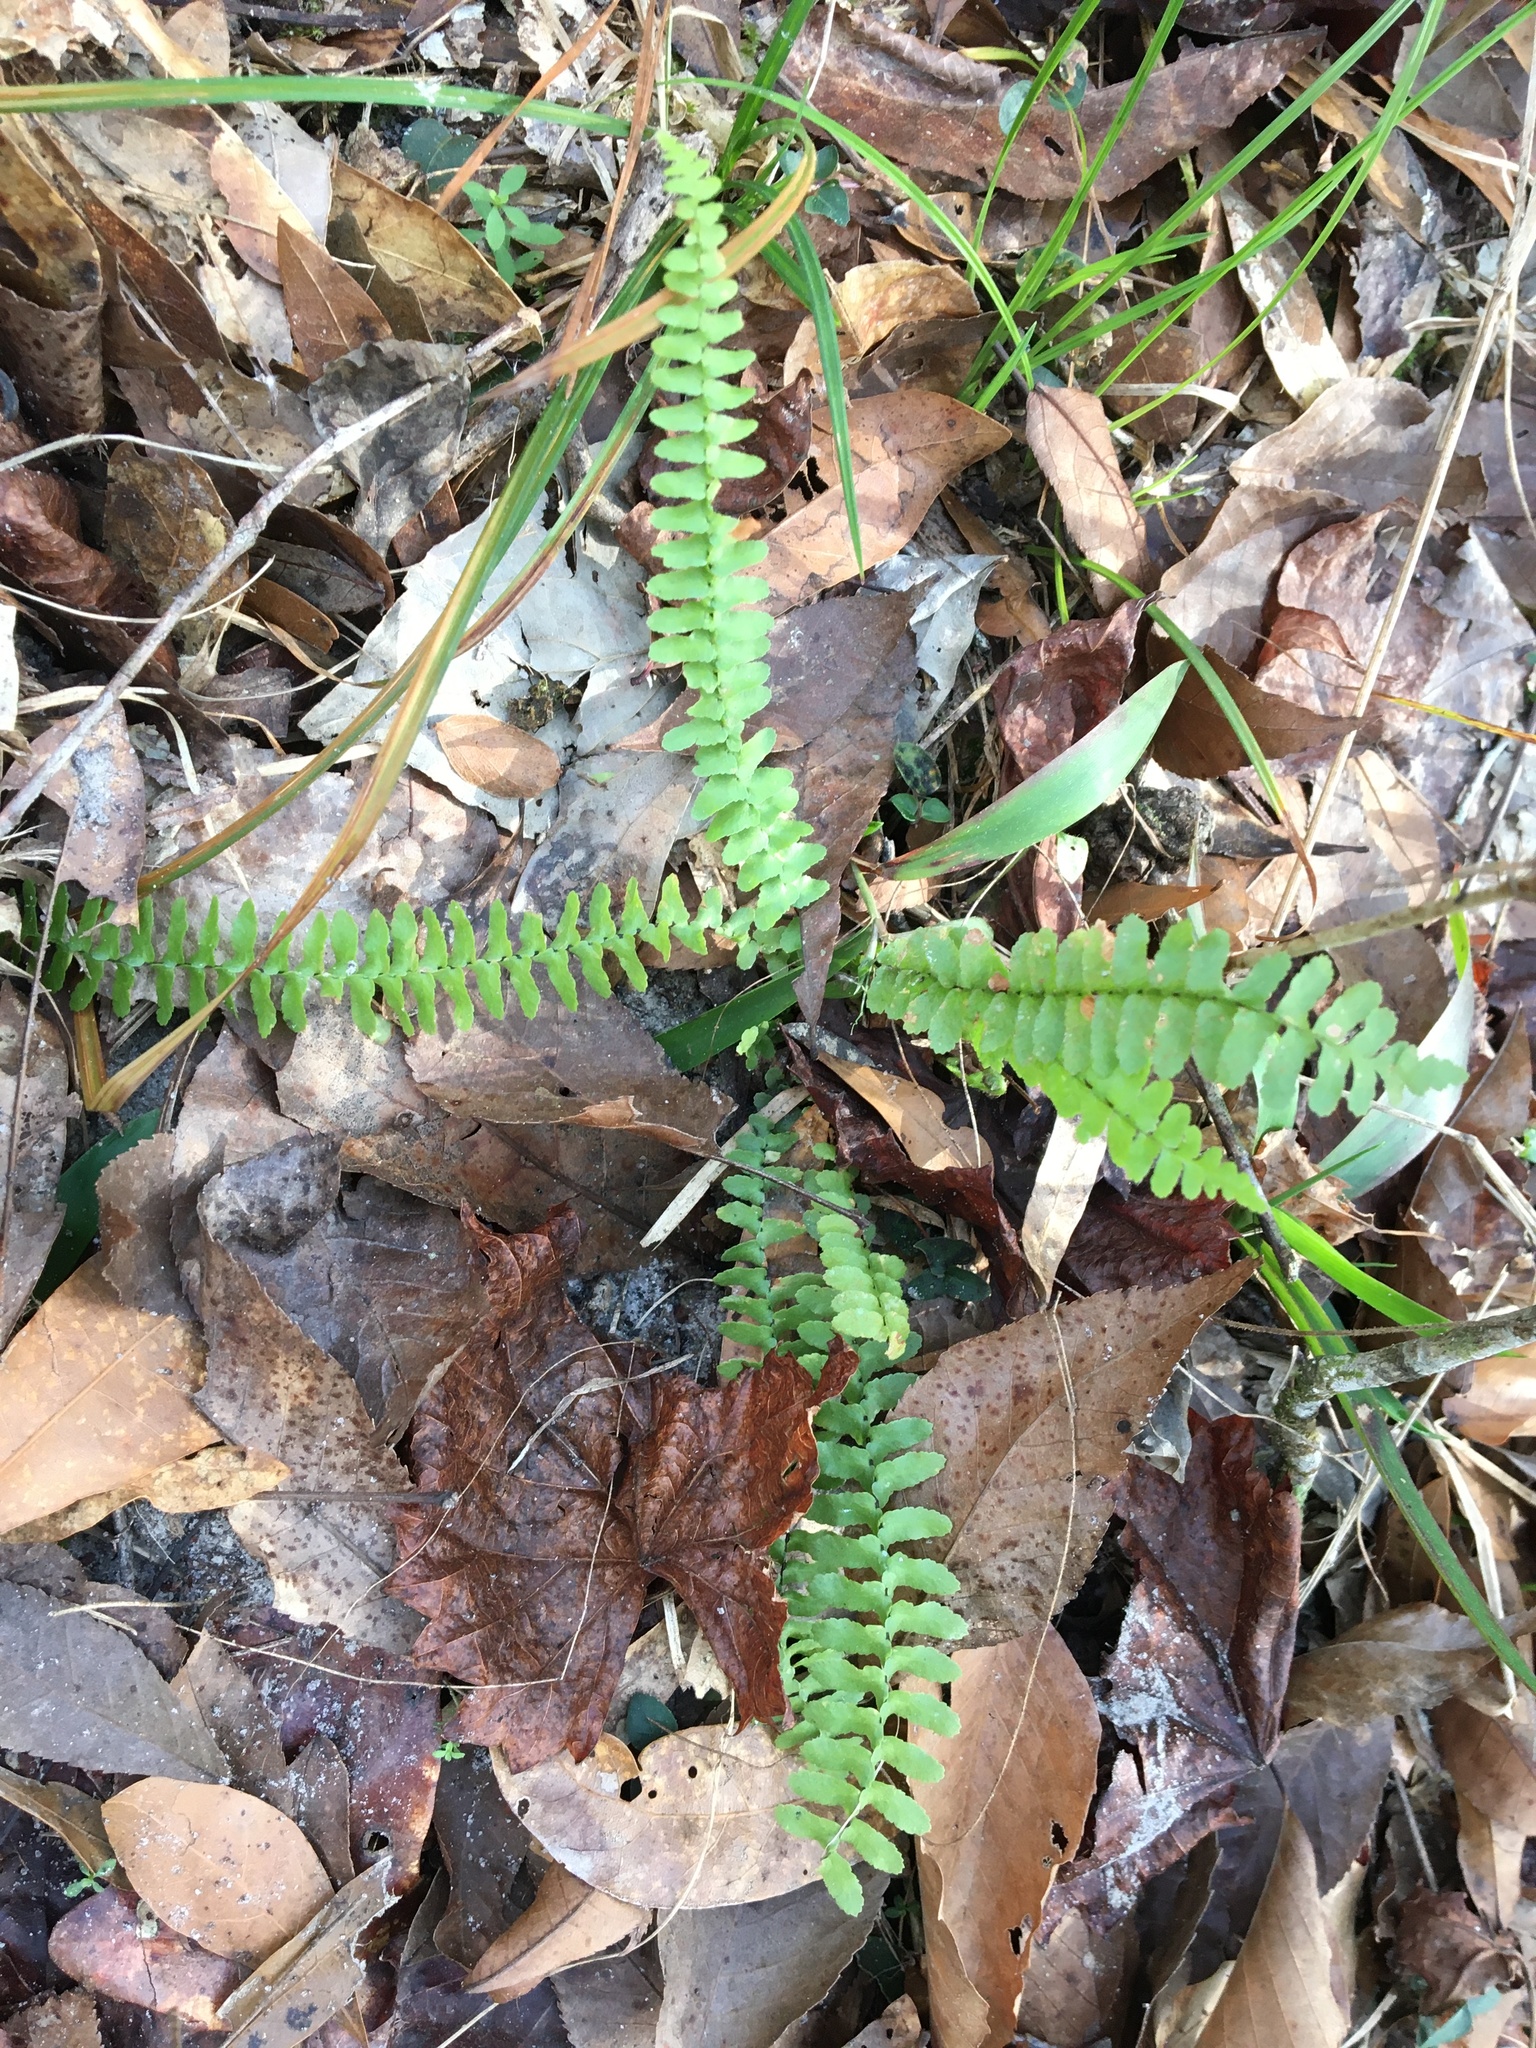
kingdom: Plantae
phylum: Tracheophyta
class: Polypodiopsida
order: Polypodiales
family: Aspleniaceae
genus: Asplenium
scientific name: Asplenium platyneuron
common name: Ebony spleenwort
